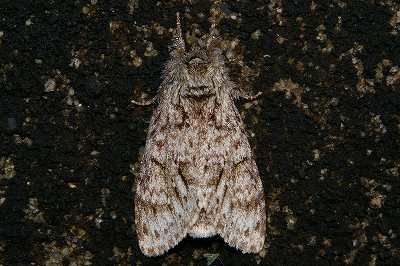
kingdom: Animalia
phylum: Arthropoda
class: Insecta
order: Lepidoptera
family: Notodontidae
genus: Pheosiopsis
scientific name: Pheosiopsis cinerea
